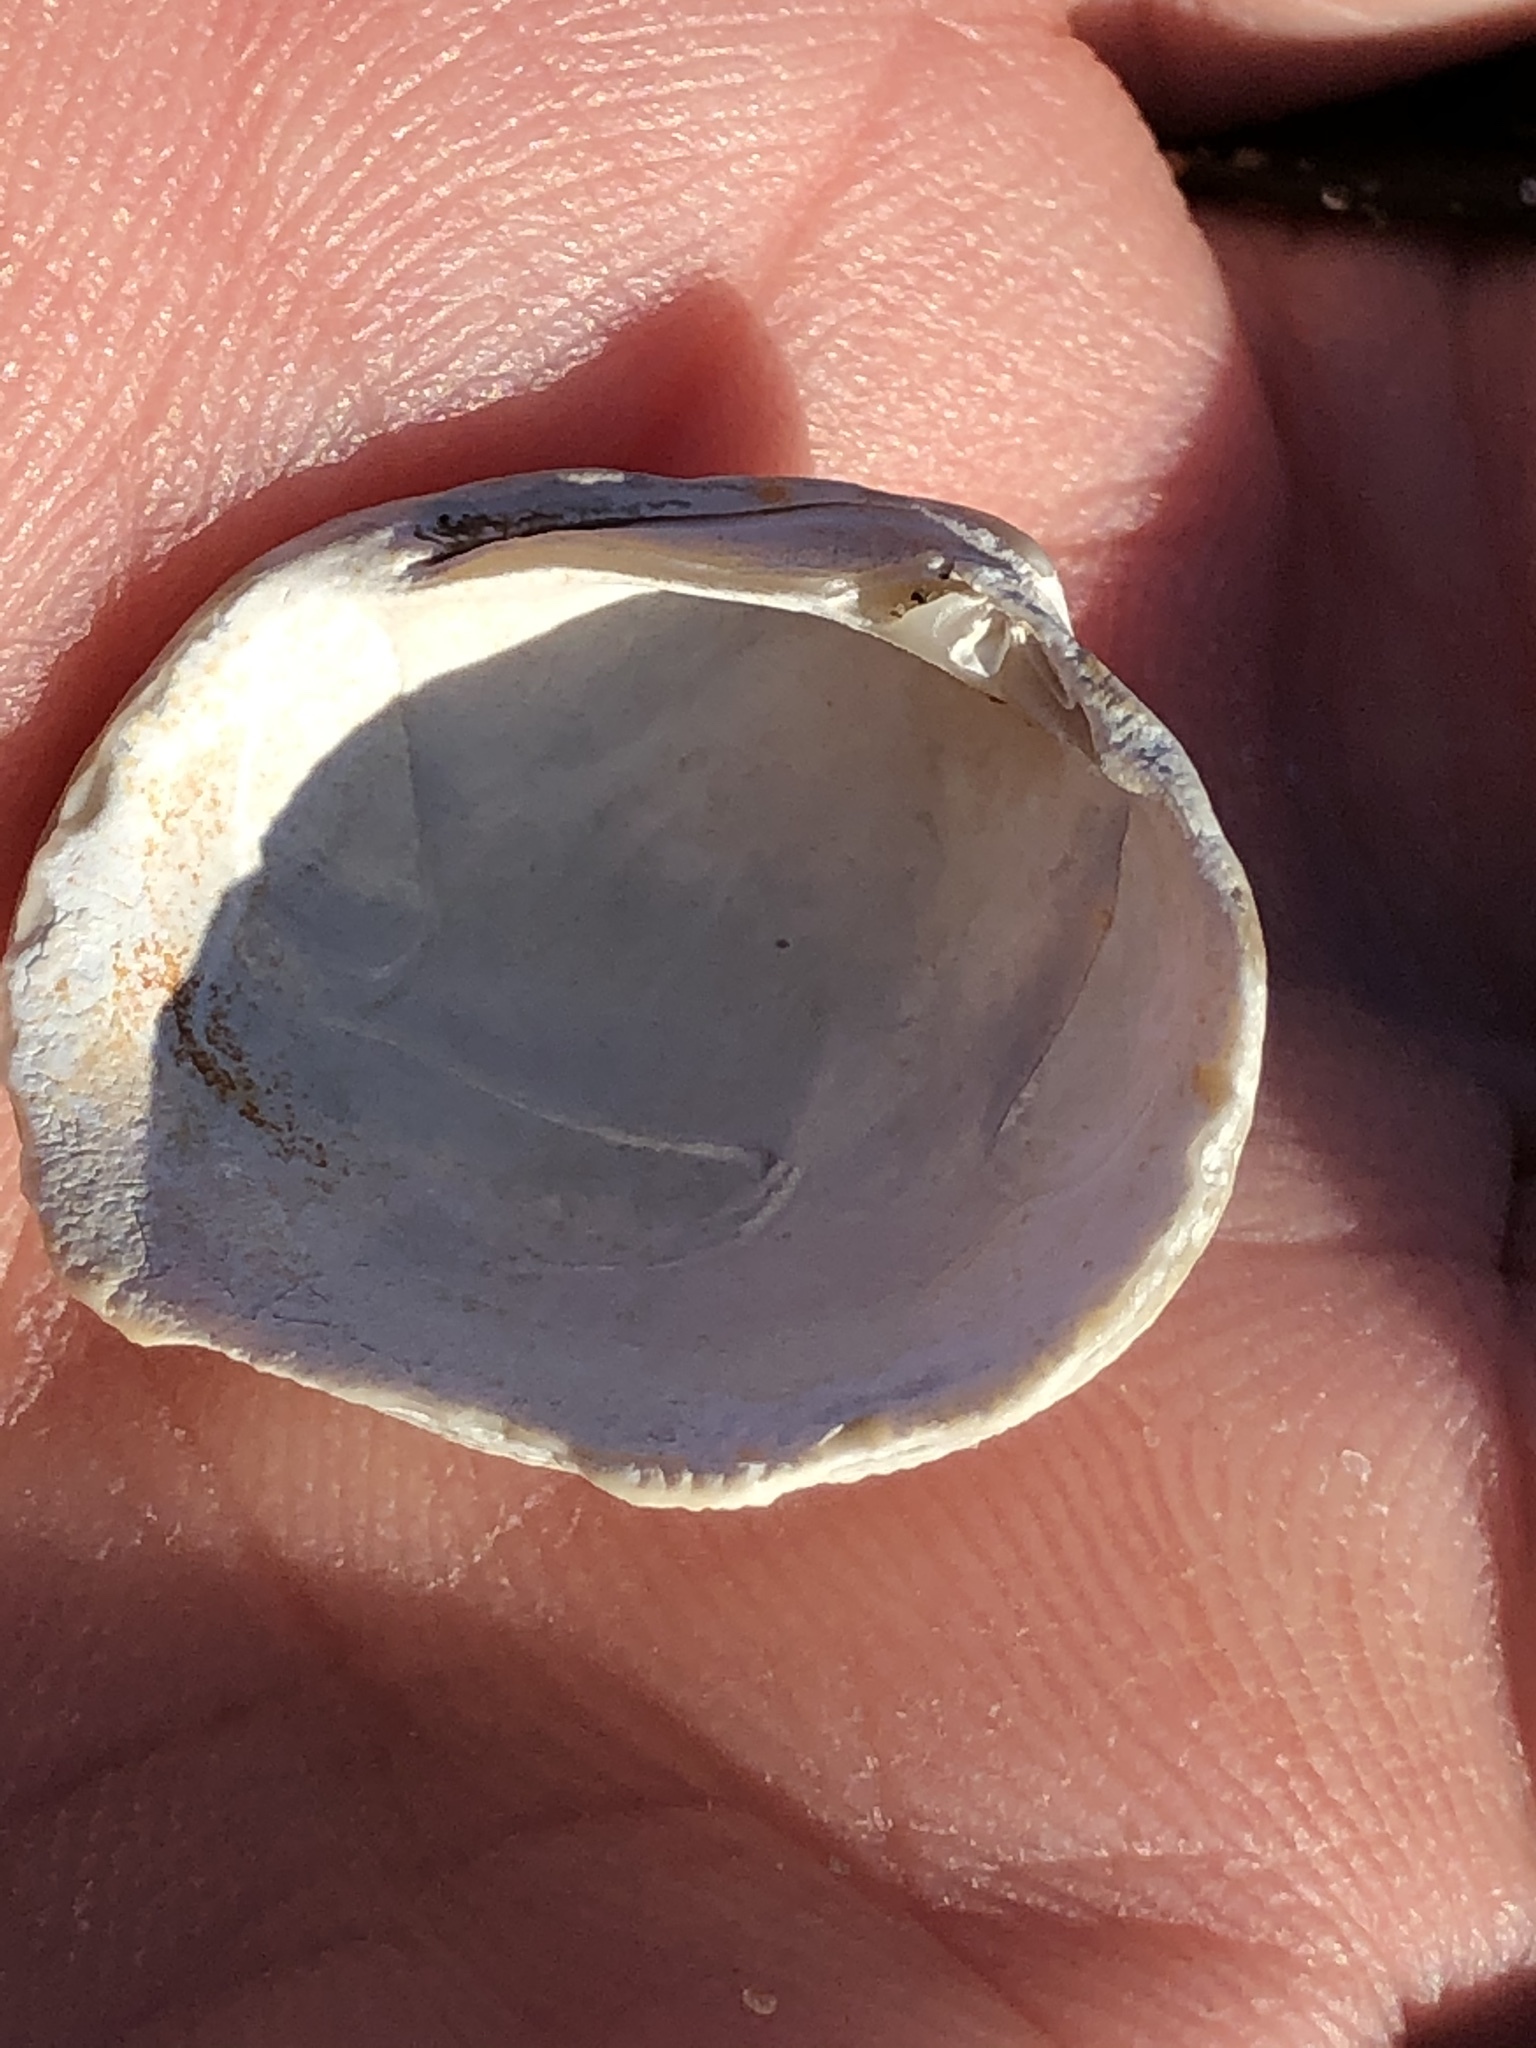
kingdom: Animalia
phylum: Mollusca
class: Bivalvia
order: Venerida
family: Veneridae
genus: Leukoma
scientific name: Leukoma staminea
